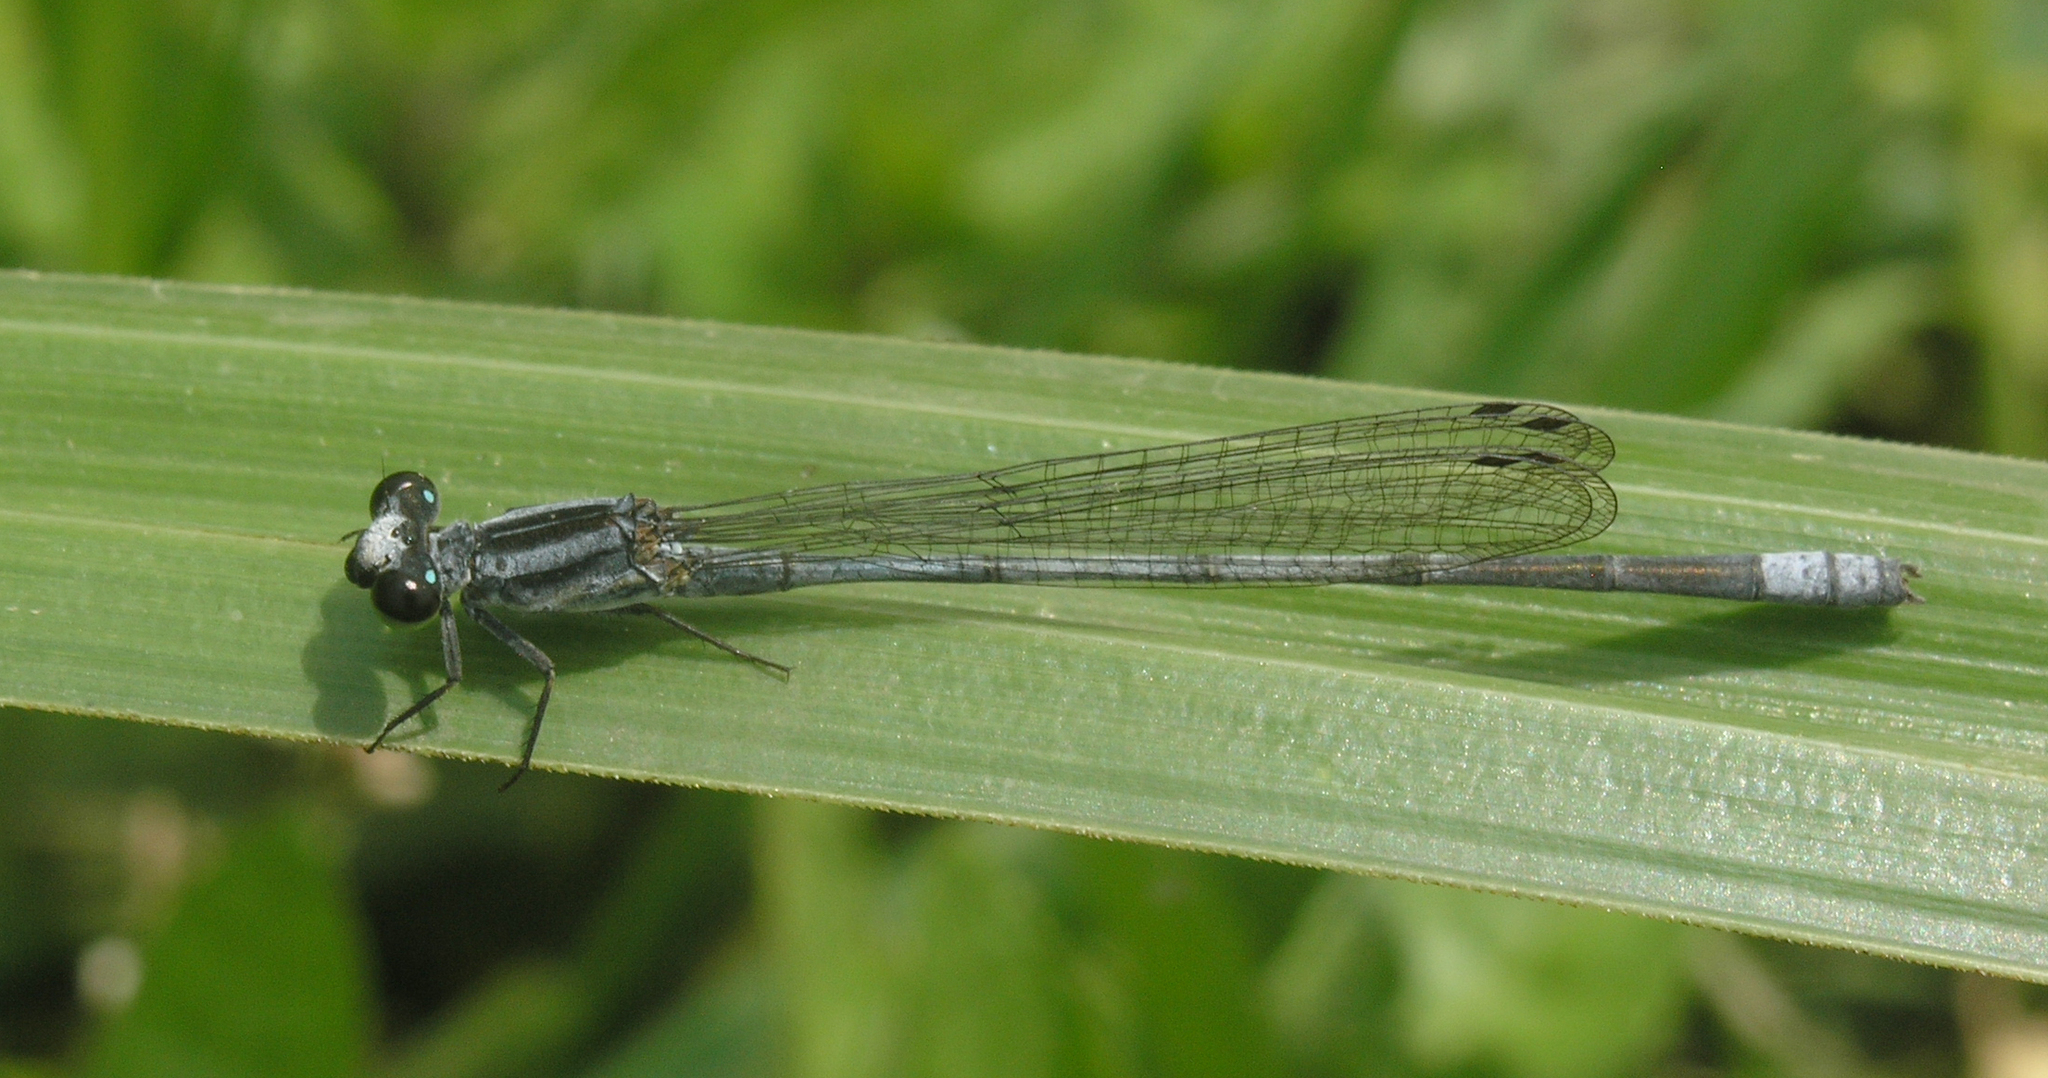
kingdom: Animalia
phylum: Arthropoda
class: Insecta
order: Odonata
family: Coenagrionidae
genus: Pseudagrion
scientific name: Pseudagrion kersteni
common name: Powder-faced sprite
